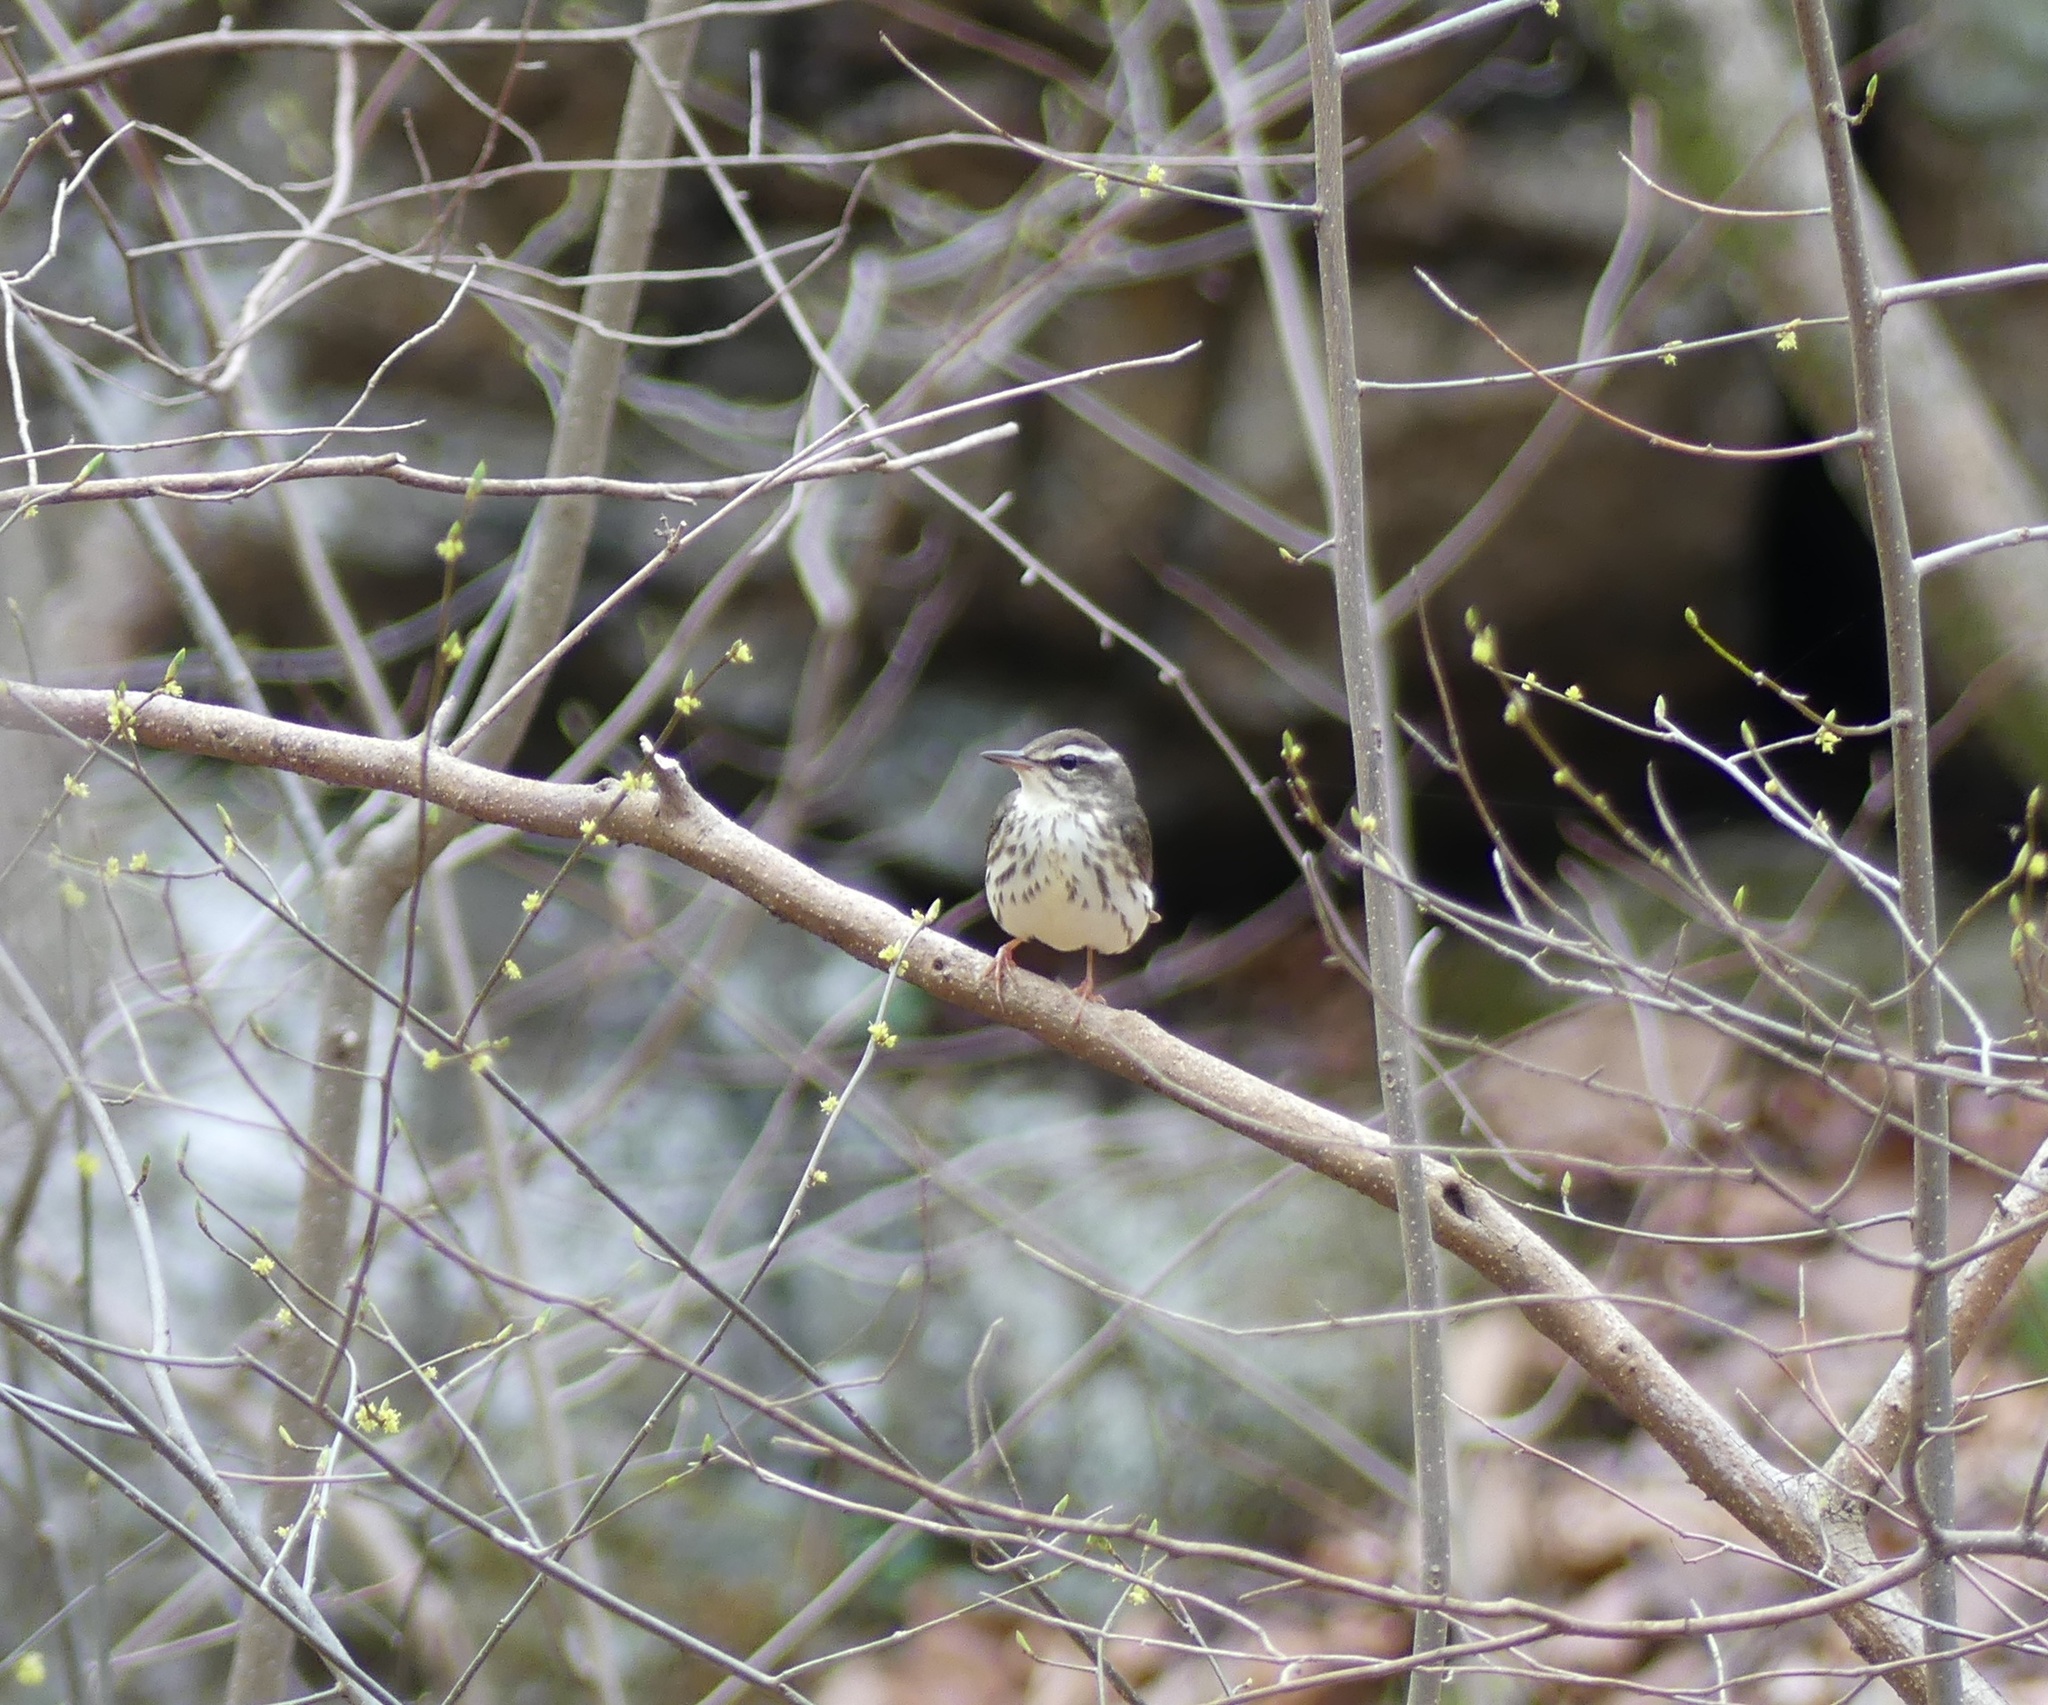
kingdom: Animalia
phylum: Chordata
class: Aves
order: Passeriformes
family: Parulidae
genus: Parkesia
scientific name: Parkesia motacilla
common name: Louisiana waterthrush
